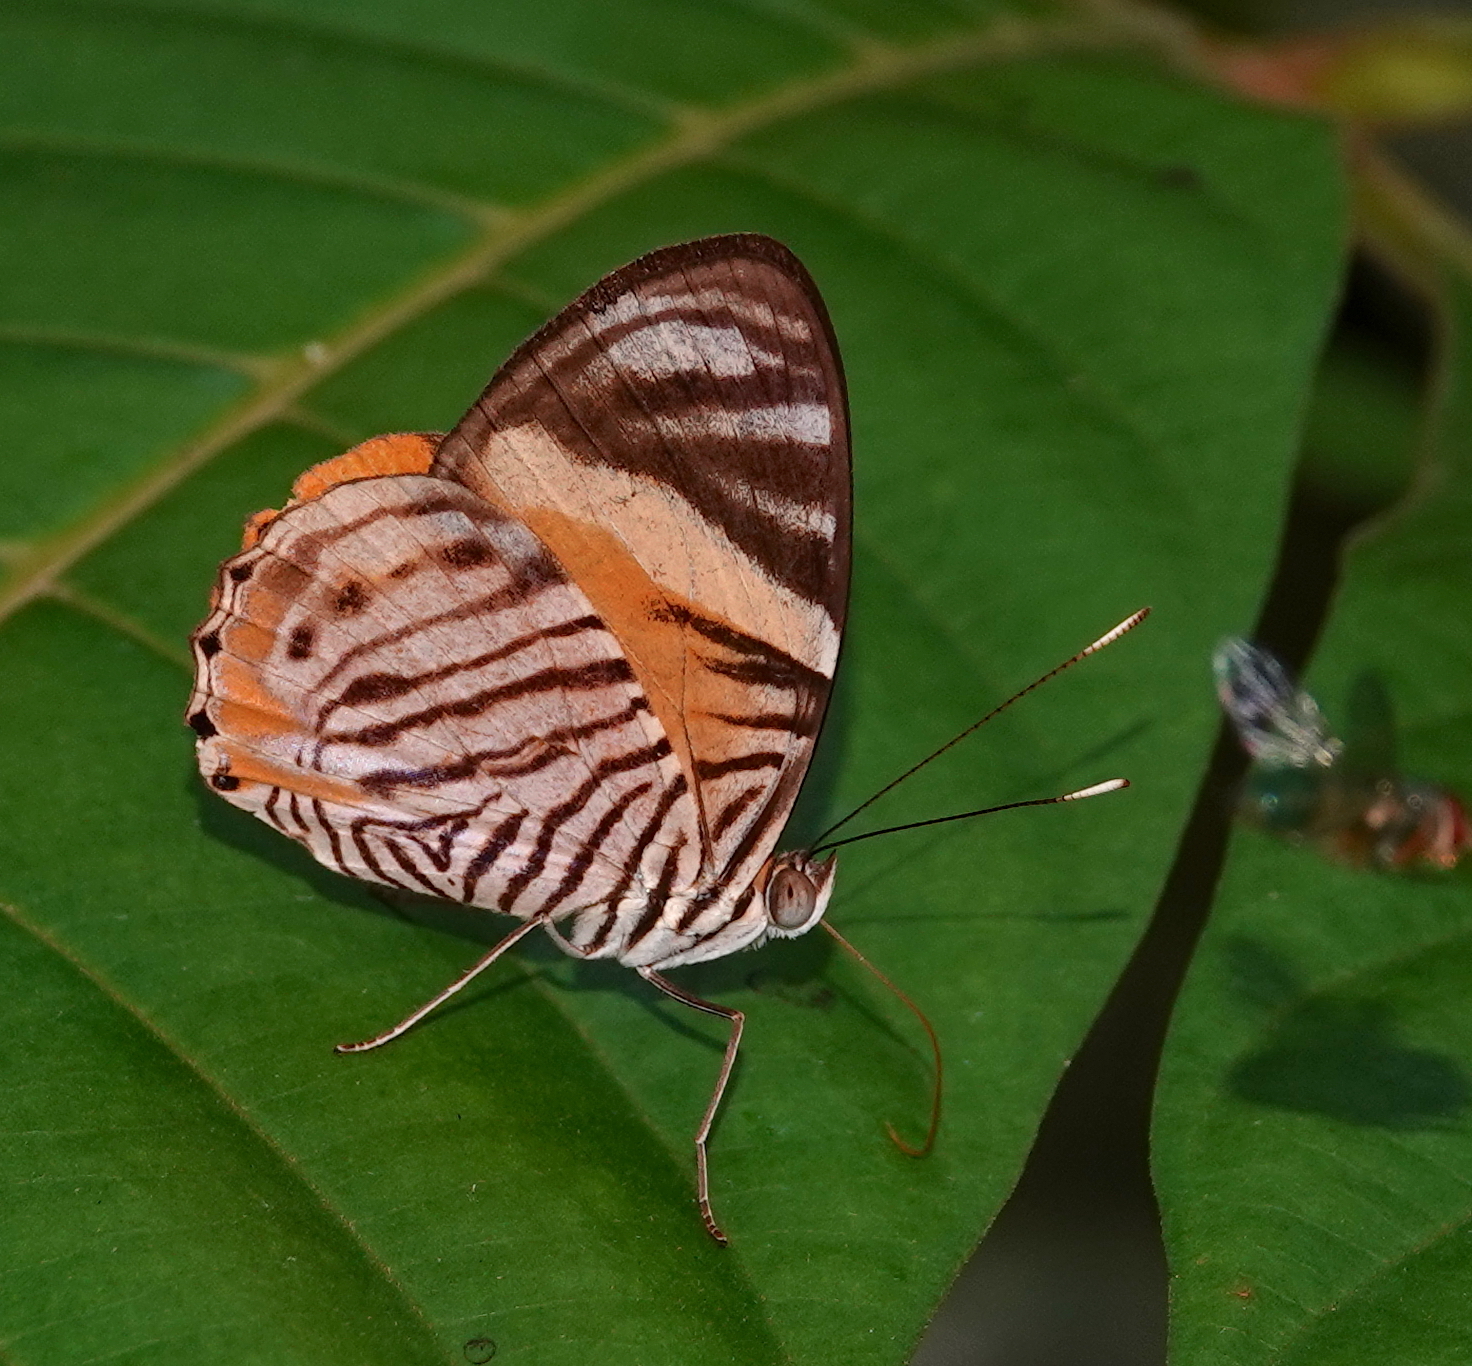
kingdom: Animalia
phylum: Arthropoda
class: Insecta
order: Lepidoptera
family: Nymphalidae
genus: Callizona
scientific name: Callizona acesta
